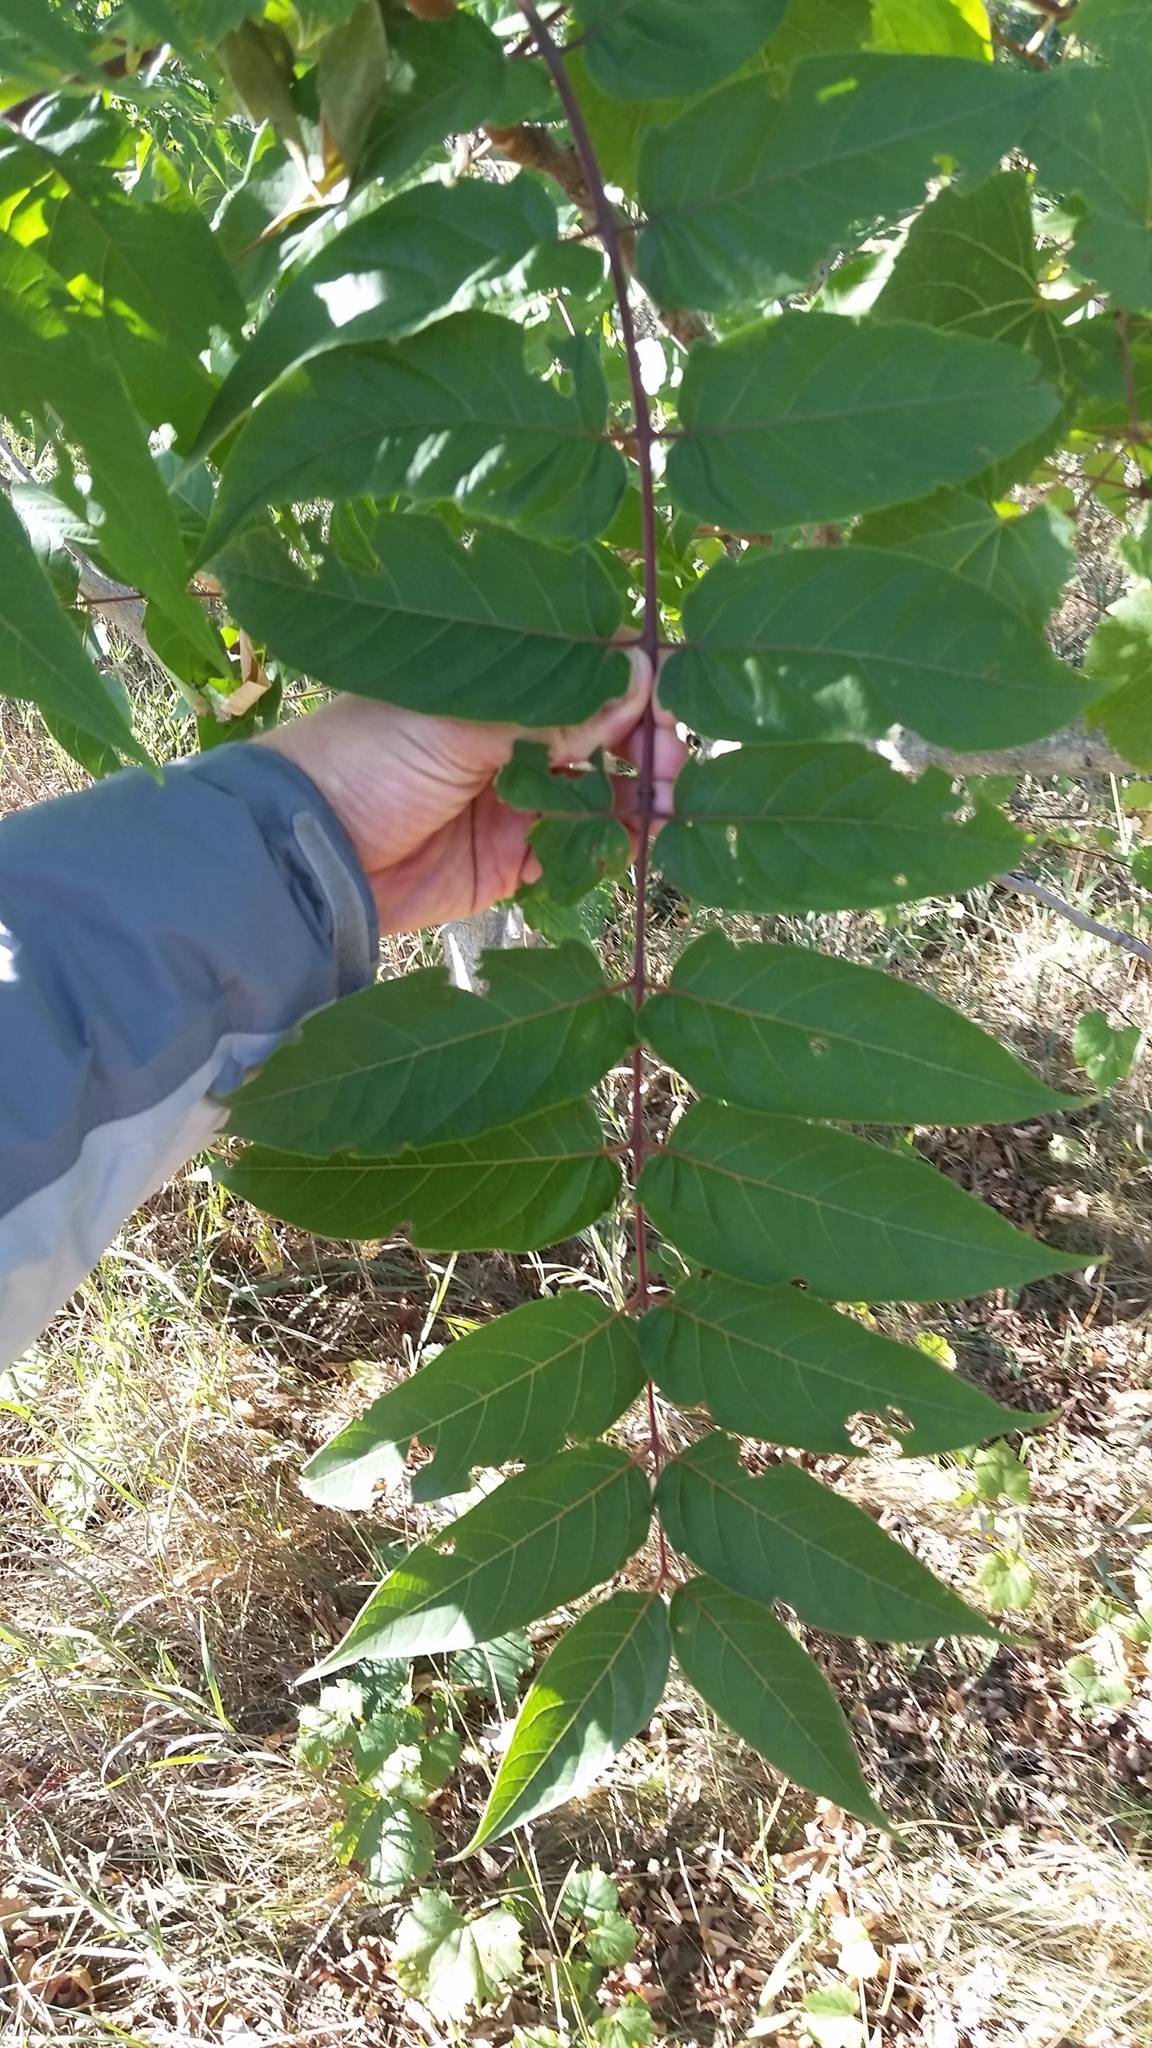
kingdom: Plantae
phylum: Tracheophyta
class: Magnoliopsida
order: Sapindales
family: Simaroubaceae
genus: Ailanthus
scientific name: Ailanthus altissima
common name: Tree-of-heaven
